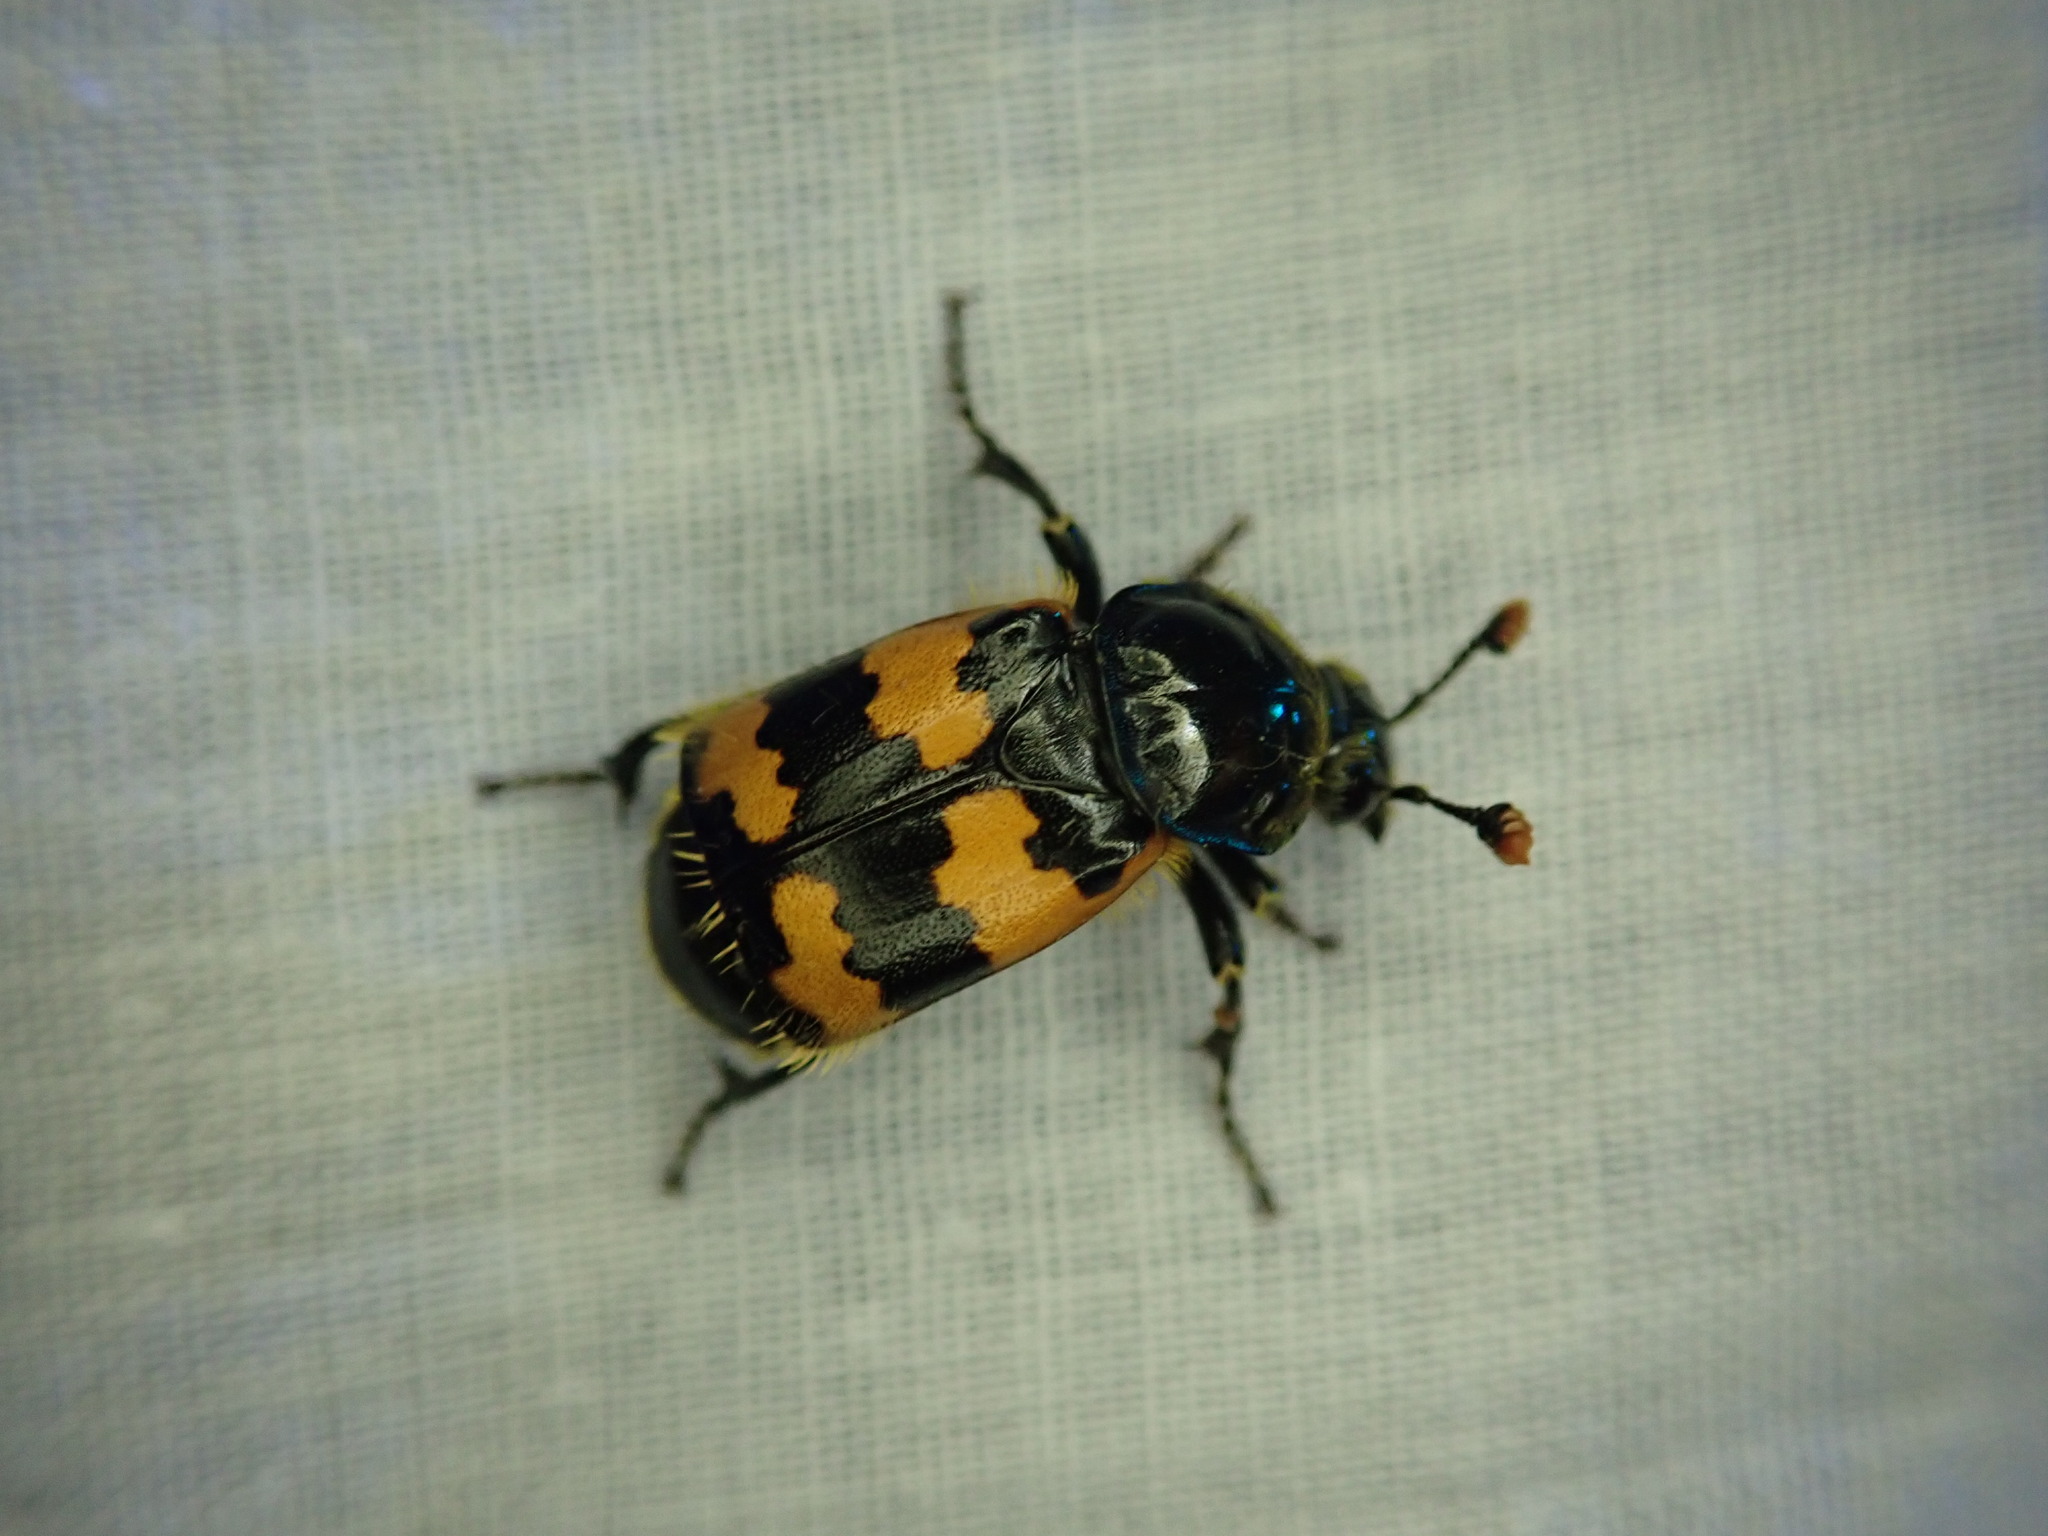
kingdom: Animalia
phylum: Arthropoda
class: Insecta
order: Coleoptera
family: Staphylinidae
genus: Nicrophorus
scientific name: Nicrophorus vespillo
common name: Common burying beetle
